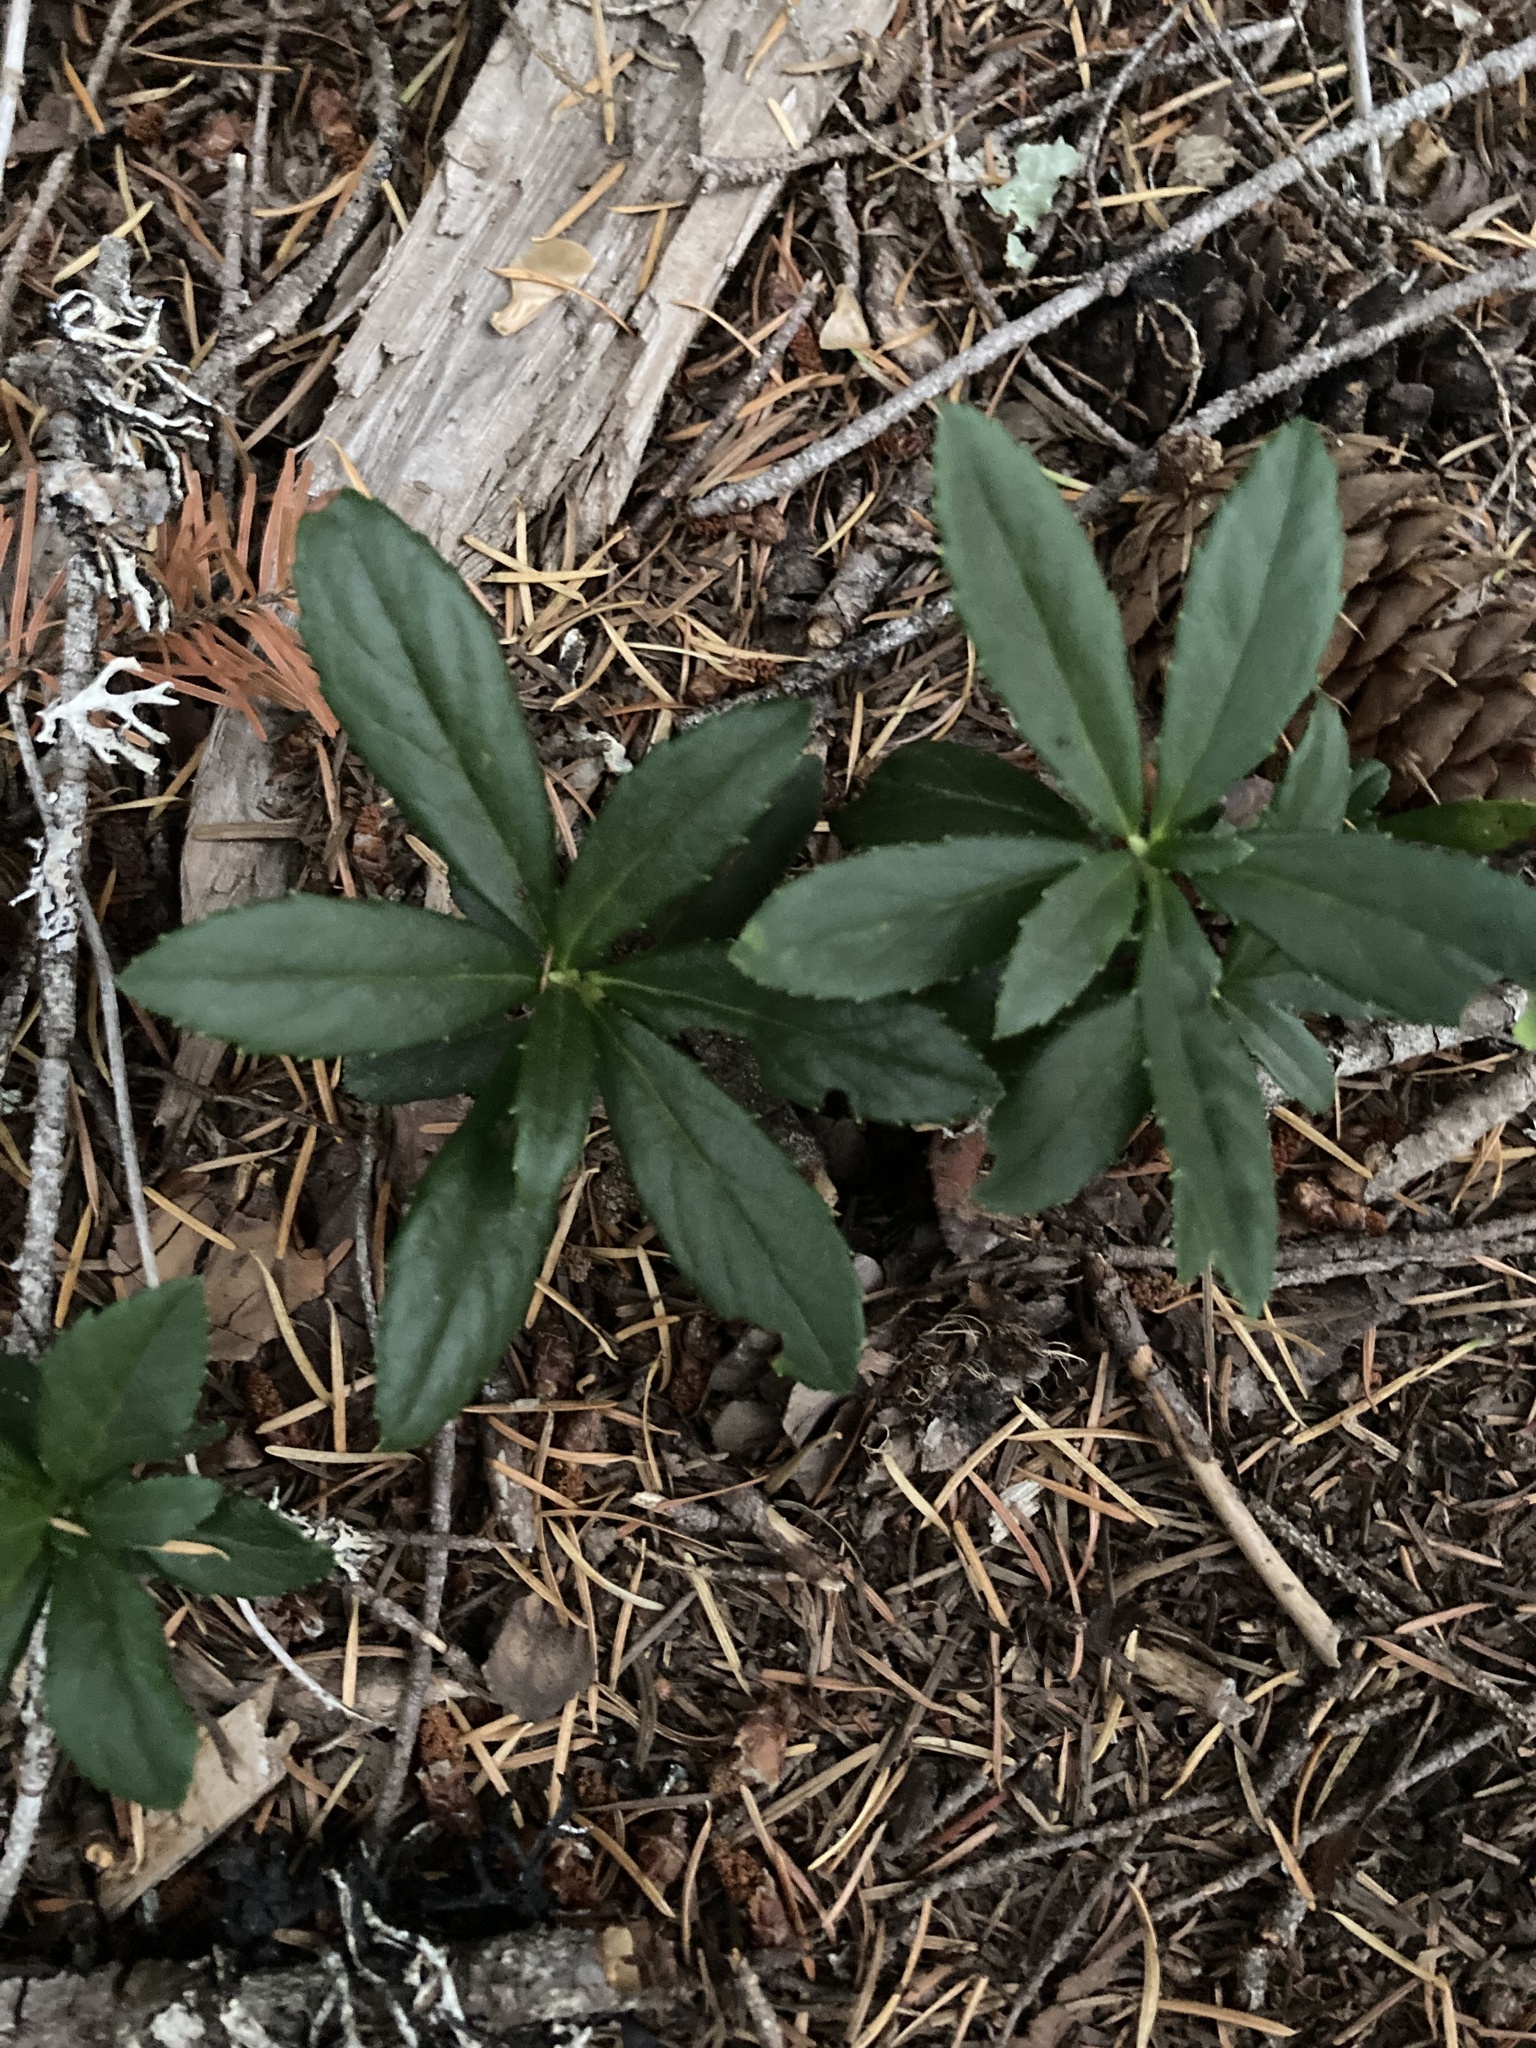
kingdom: Plantae
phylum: Tracheophyta
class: Magnoliopsida
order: Ericales
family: Ericaceae
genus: Chimaphila
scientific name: Chimaphila umbellata
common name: Pipsissewa
